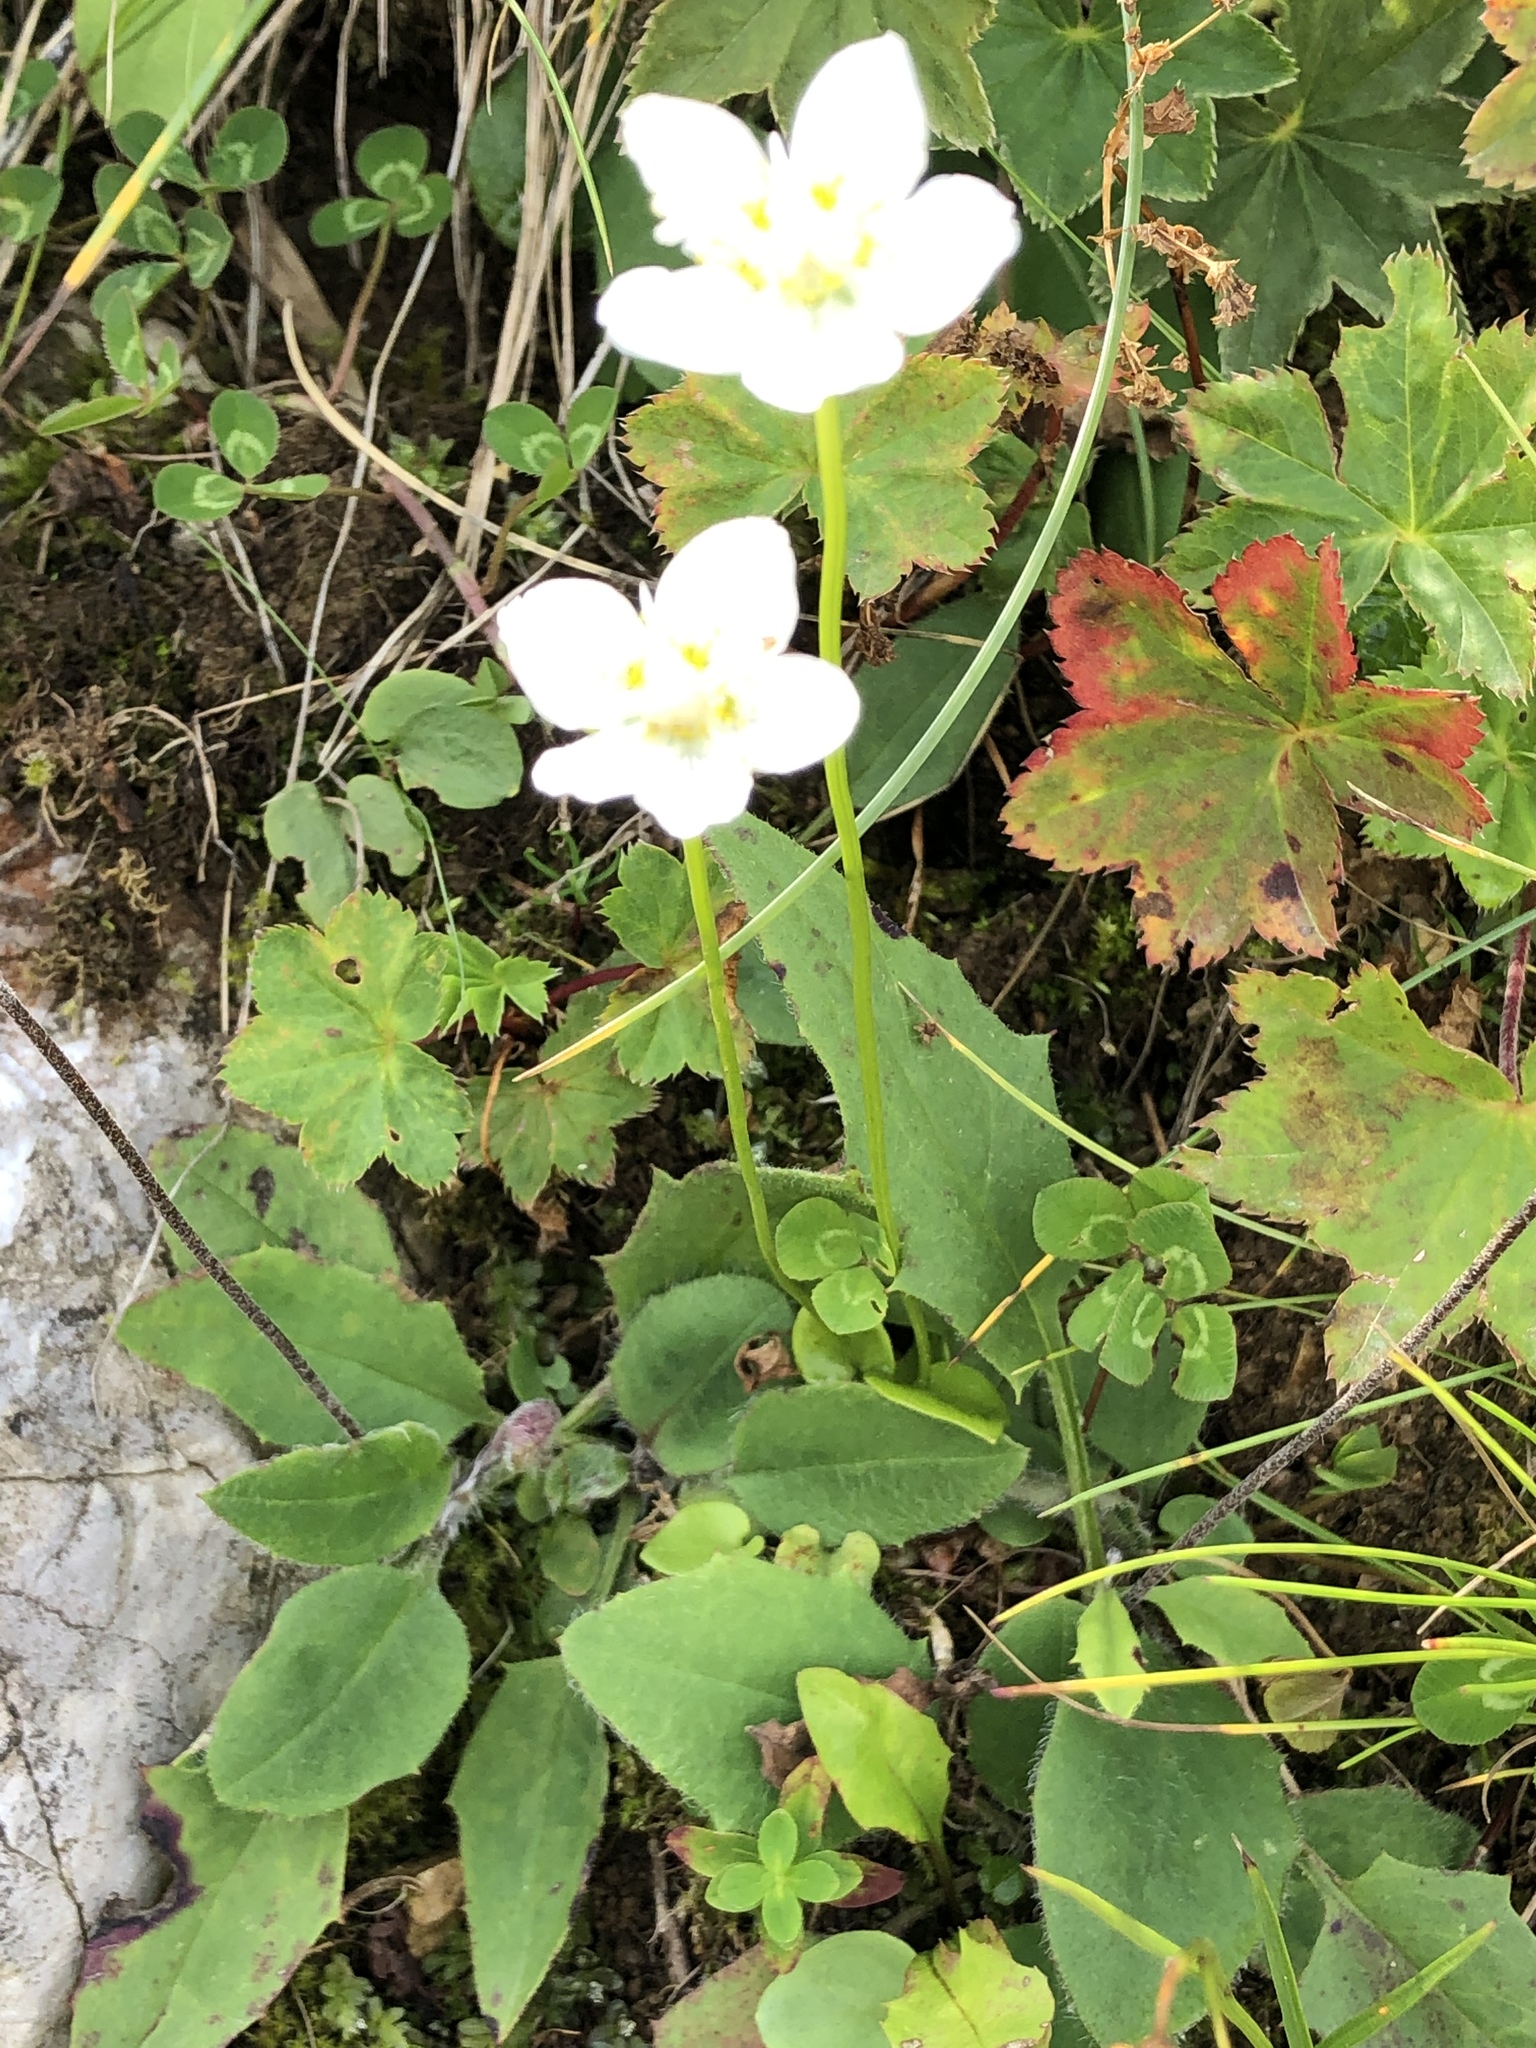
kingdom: Plantae
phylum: Tracheophyta
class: Magnoliopsida
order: Celastrales
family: Parnassiaceae
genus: Parnassia
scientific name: Parnassia palustris
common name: Grass-of-parnassus
